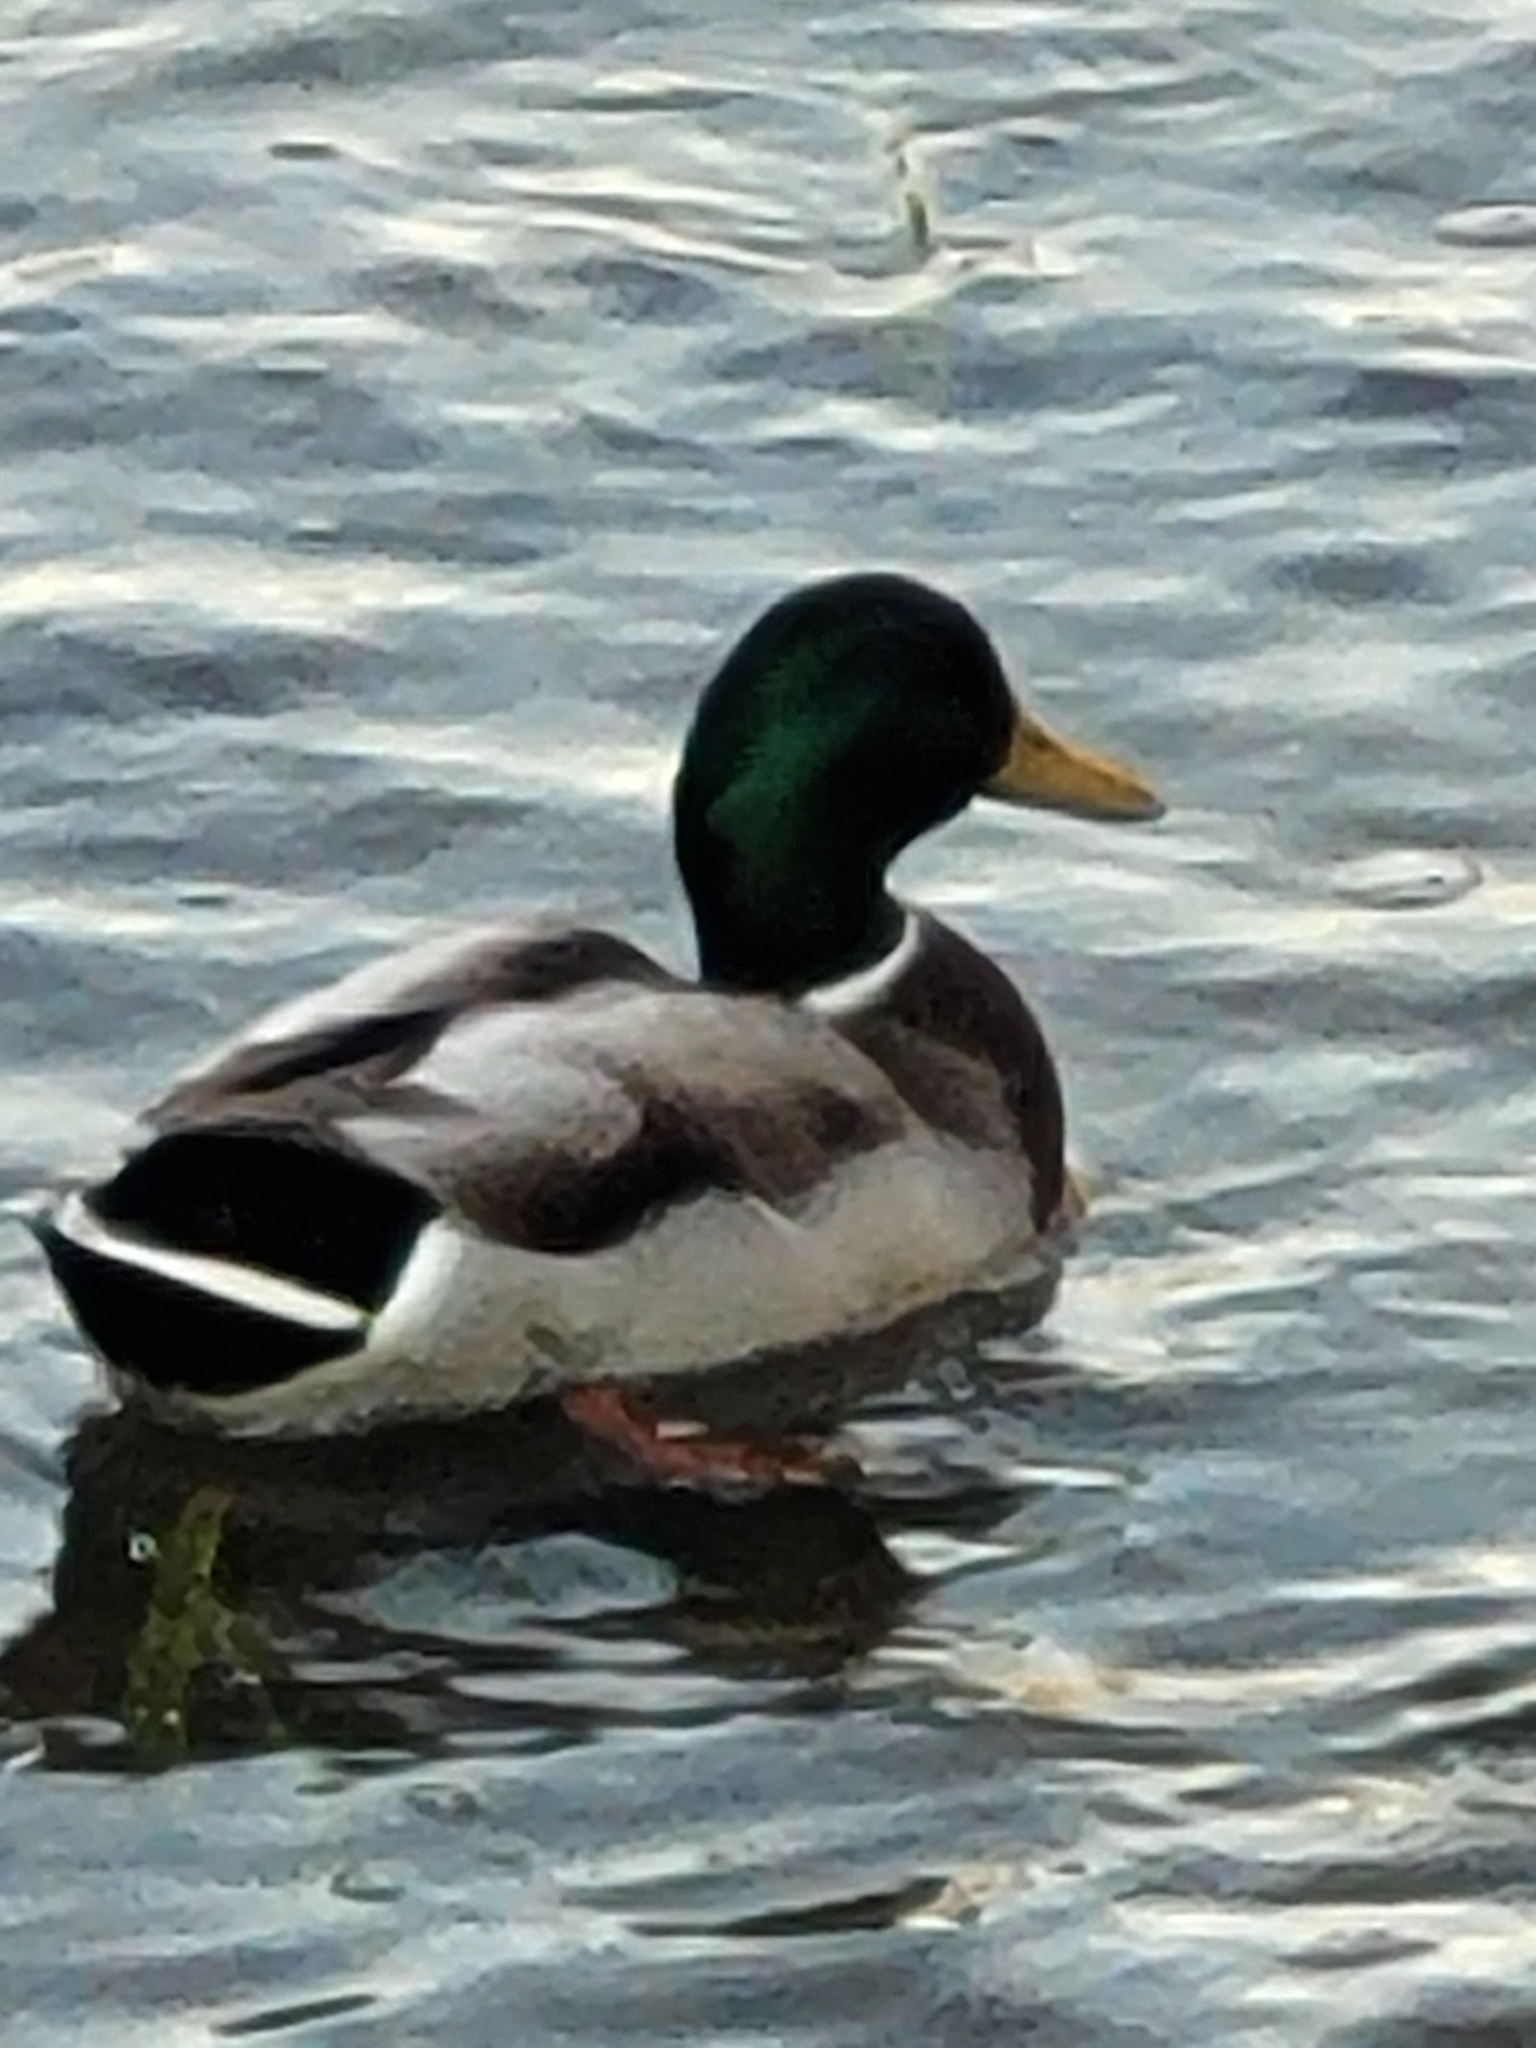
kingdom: Animalia
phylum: Chordata
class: Aves
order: Anseriformes
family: Anatidae
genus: Anas
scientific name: Anas platyrhynchos
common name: Mallard
